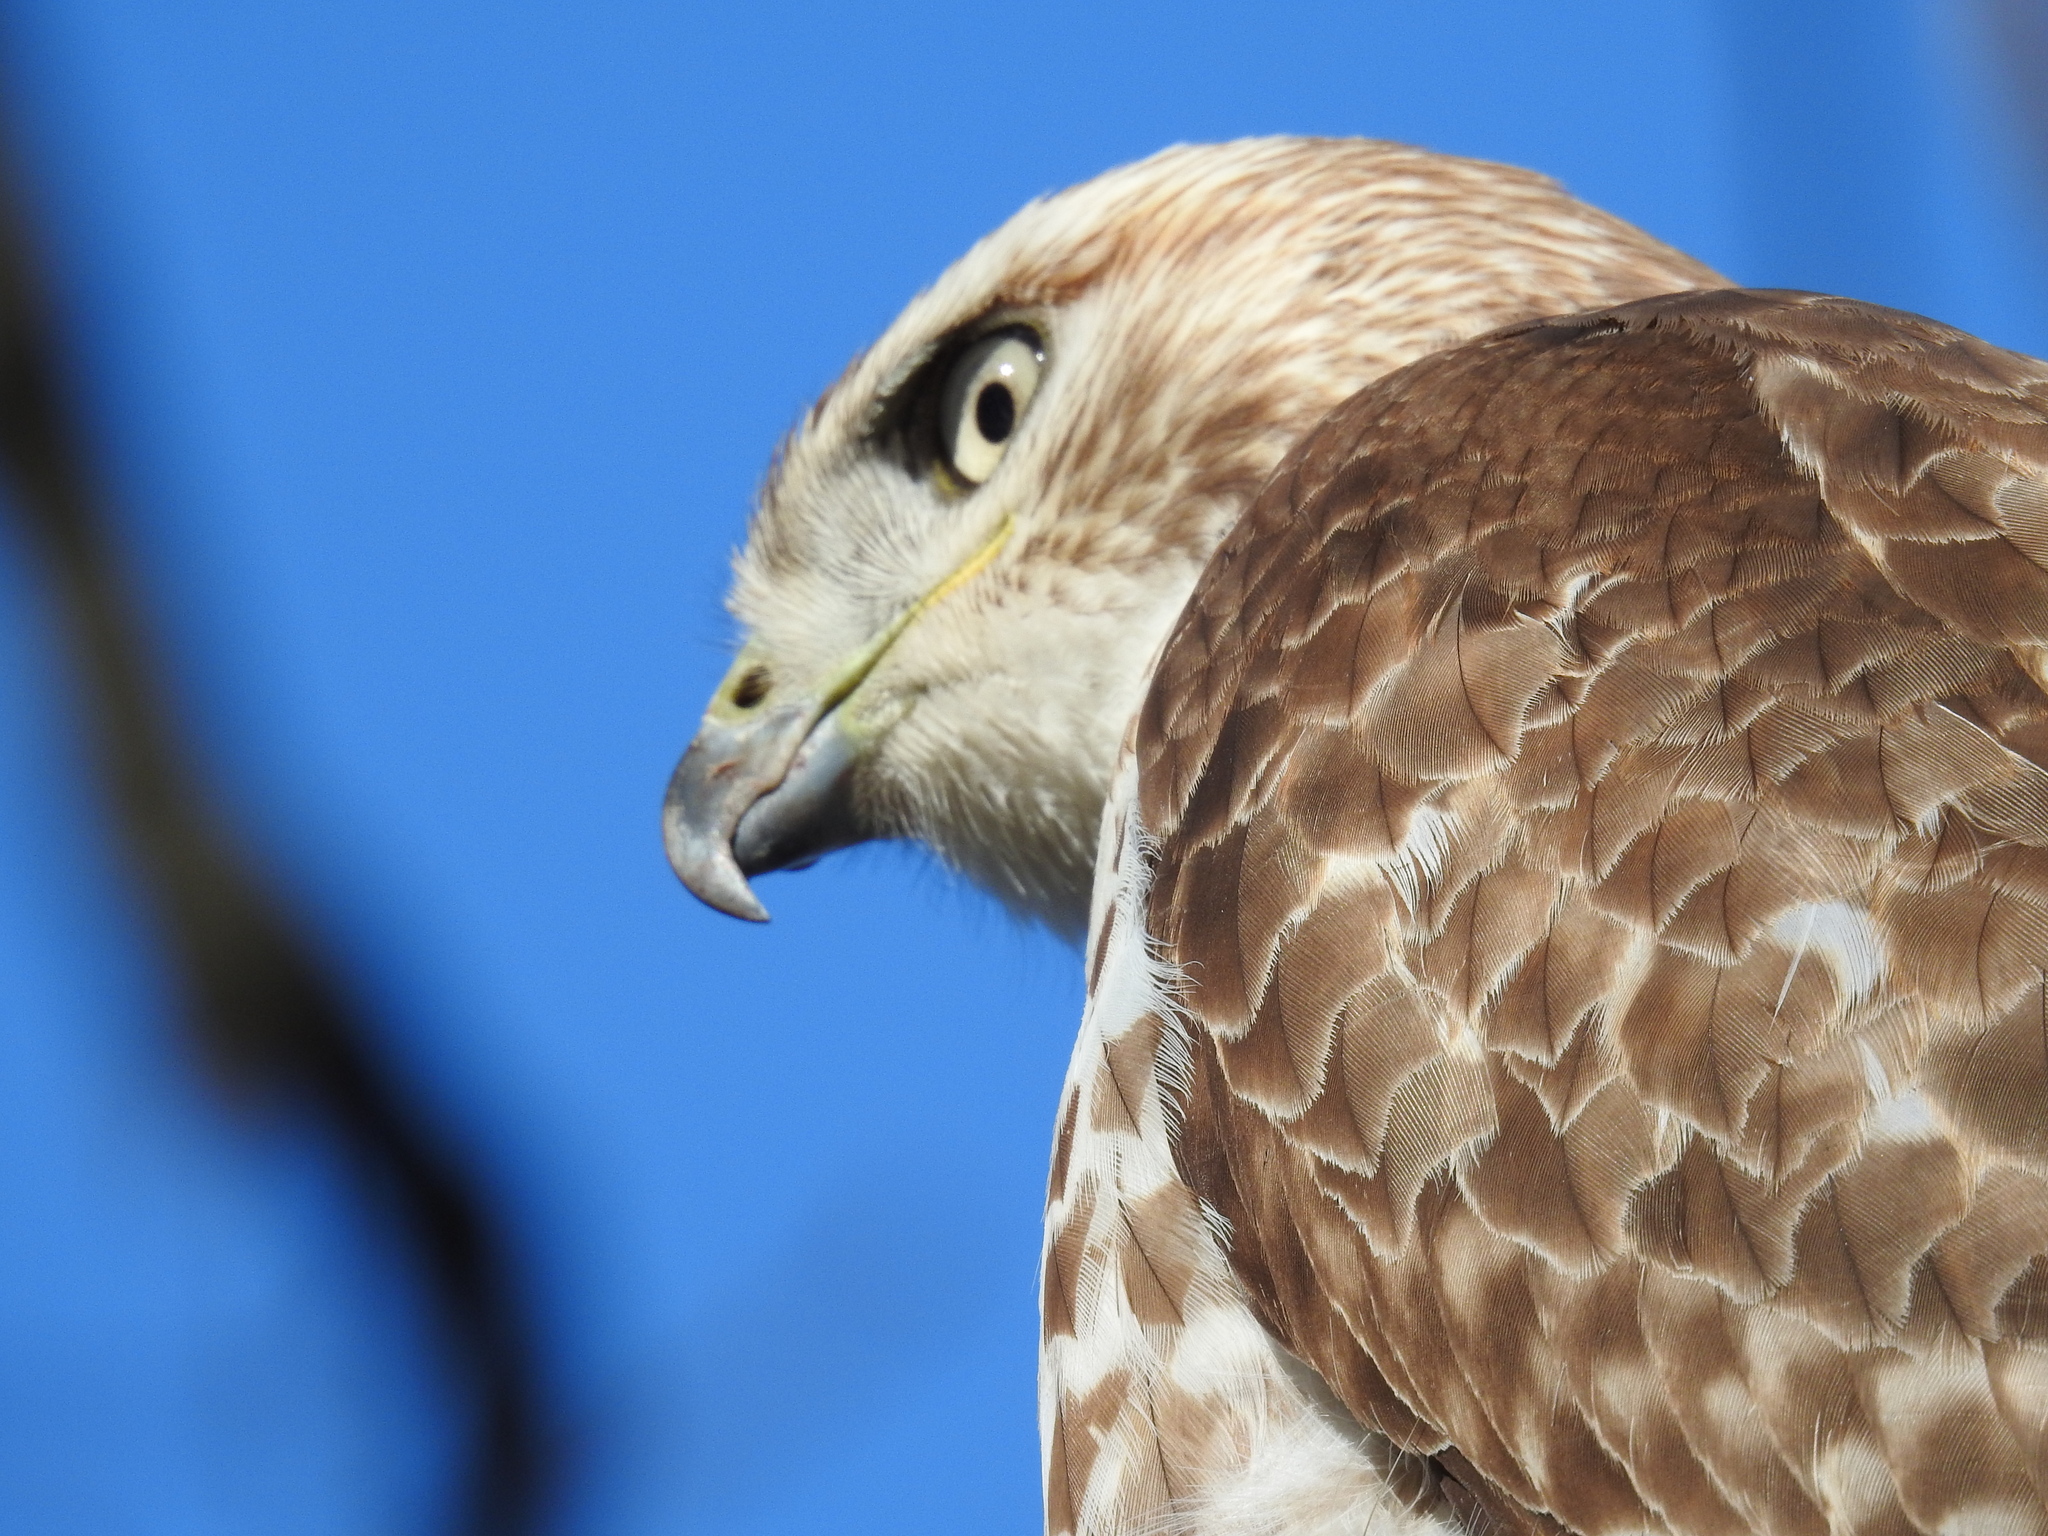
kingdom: Animalia
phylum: Chordata
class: Aves
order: Accipitriformes
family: Accipitridae
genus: Buteo
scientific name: Buteo jamaicensis
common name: Red-tailed hawk
